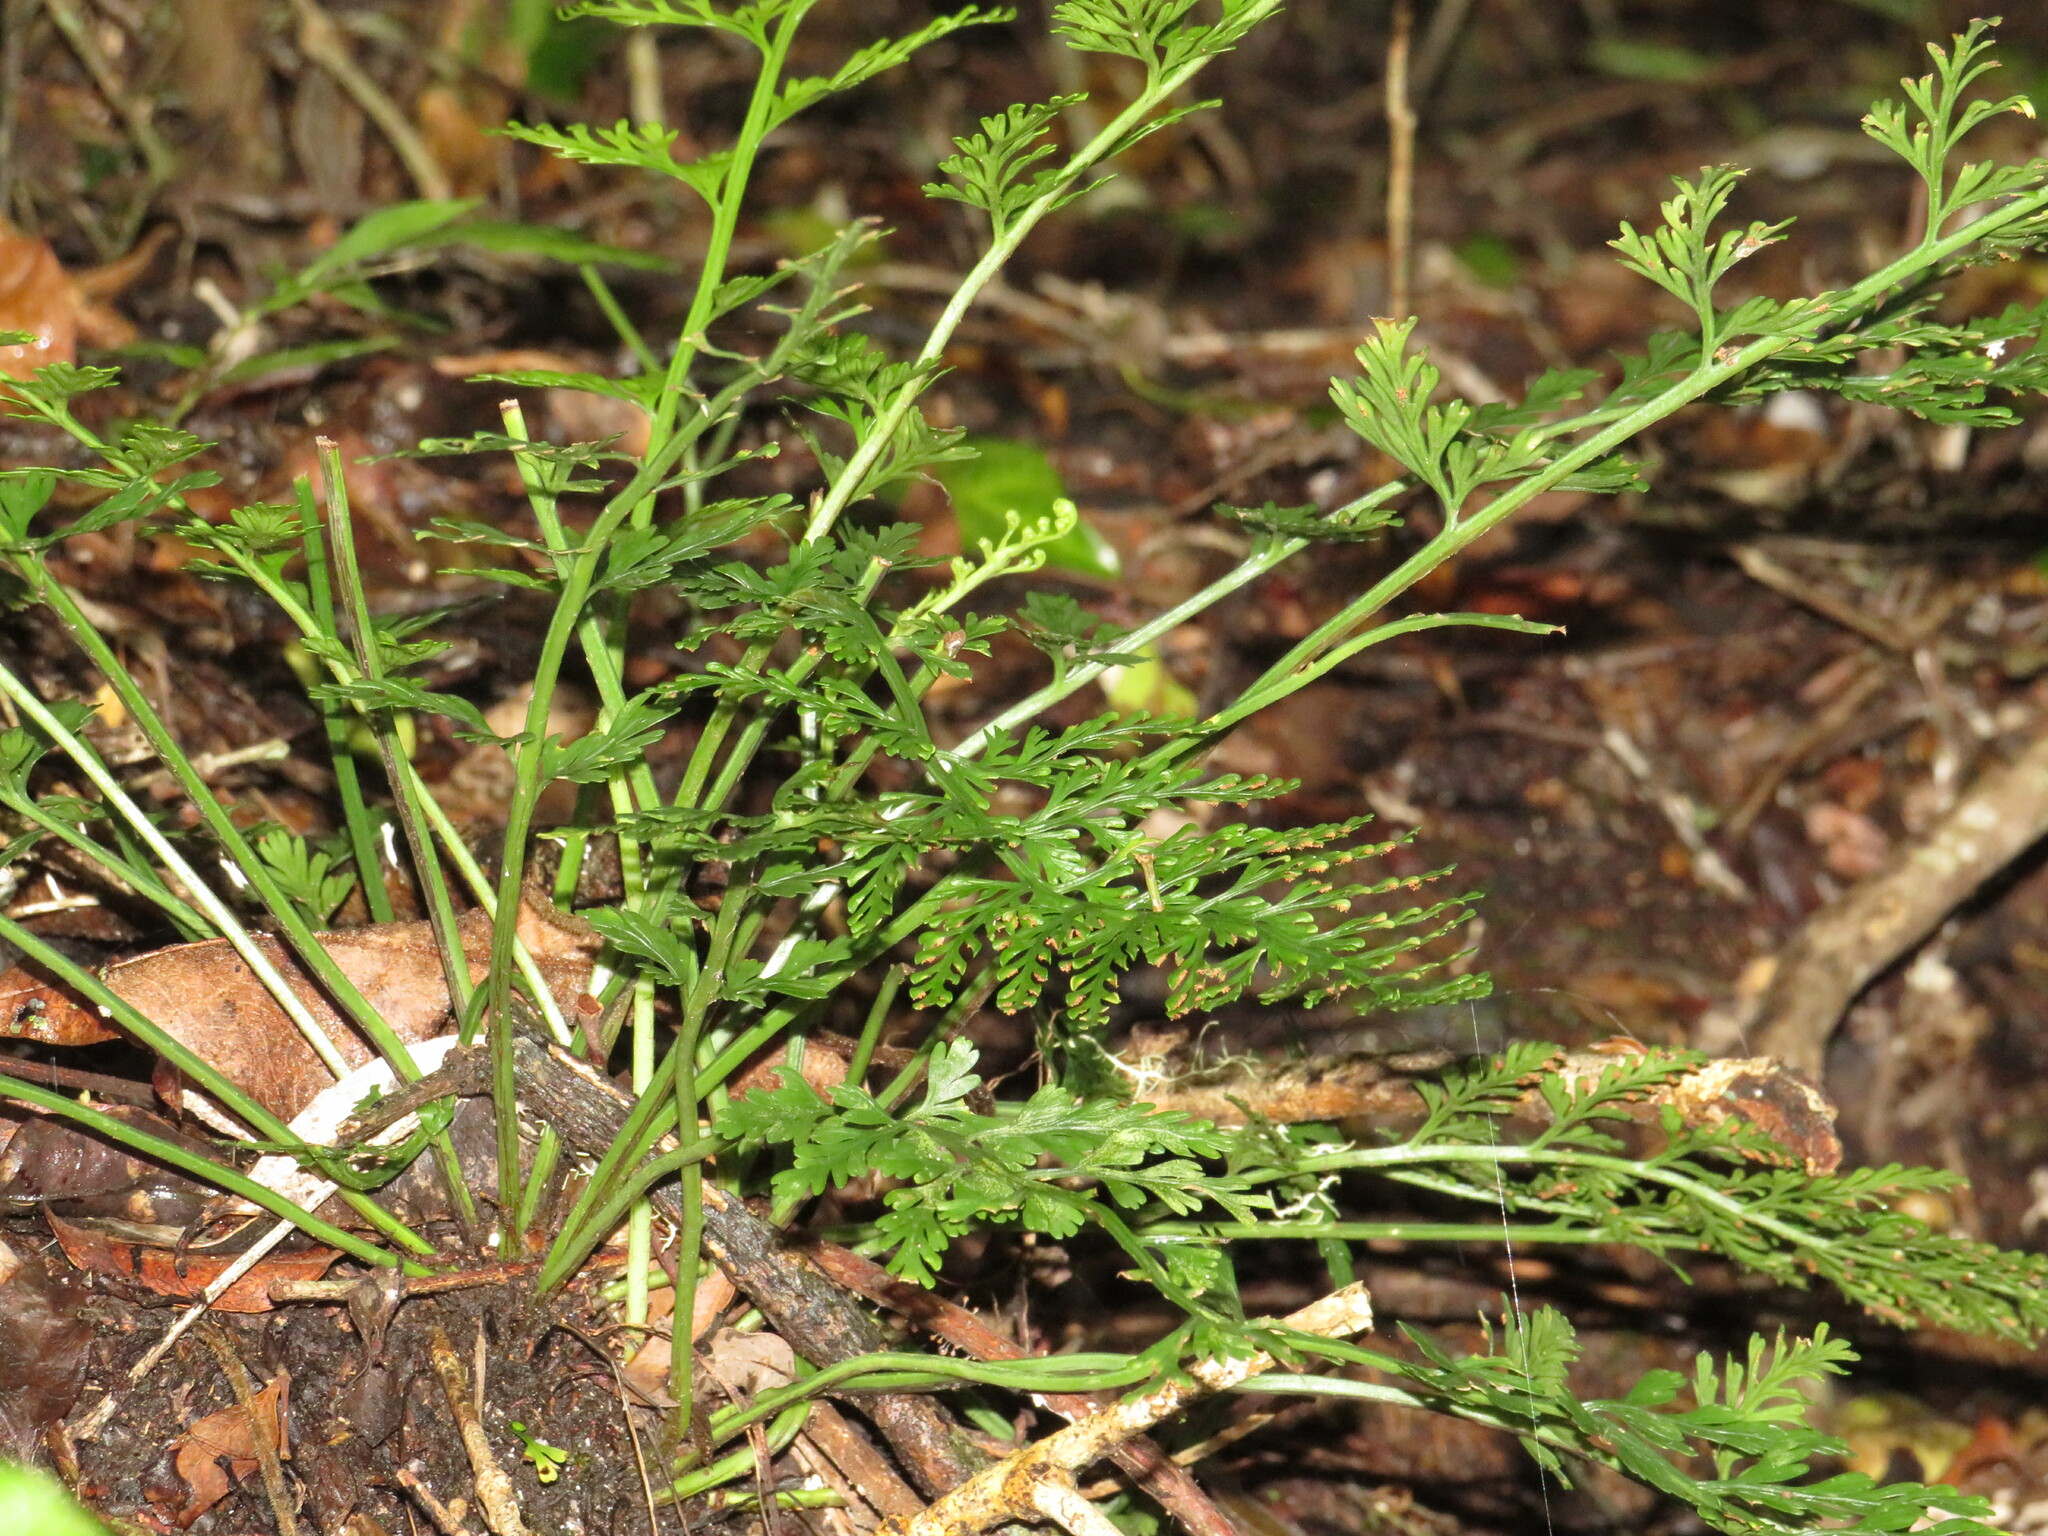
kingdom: Plantae
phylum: Tracheophyta
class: Polypodiopsida
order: Polypodiales
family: Aspleniaceae
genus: Asplenium
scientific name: Asplenium rutifolium
